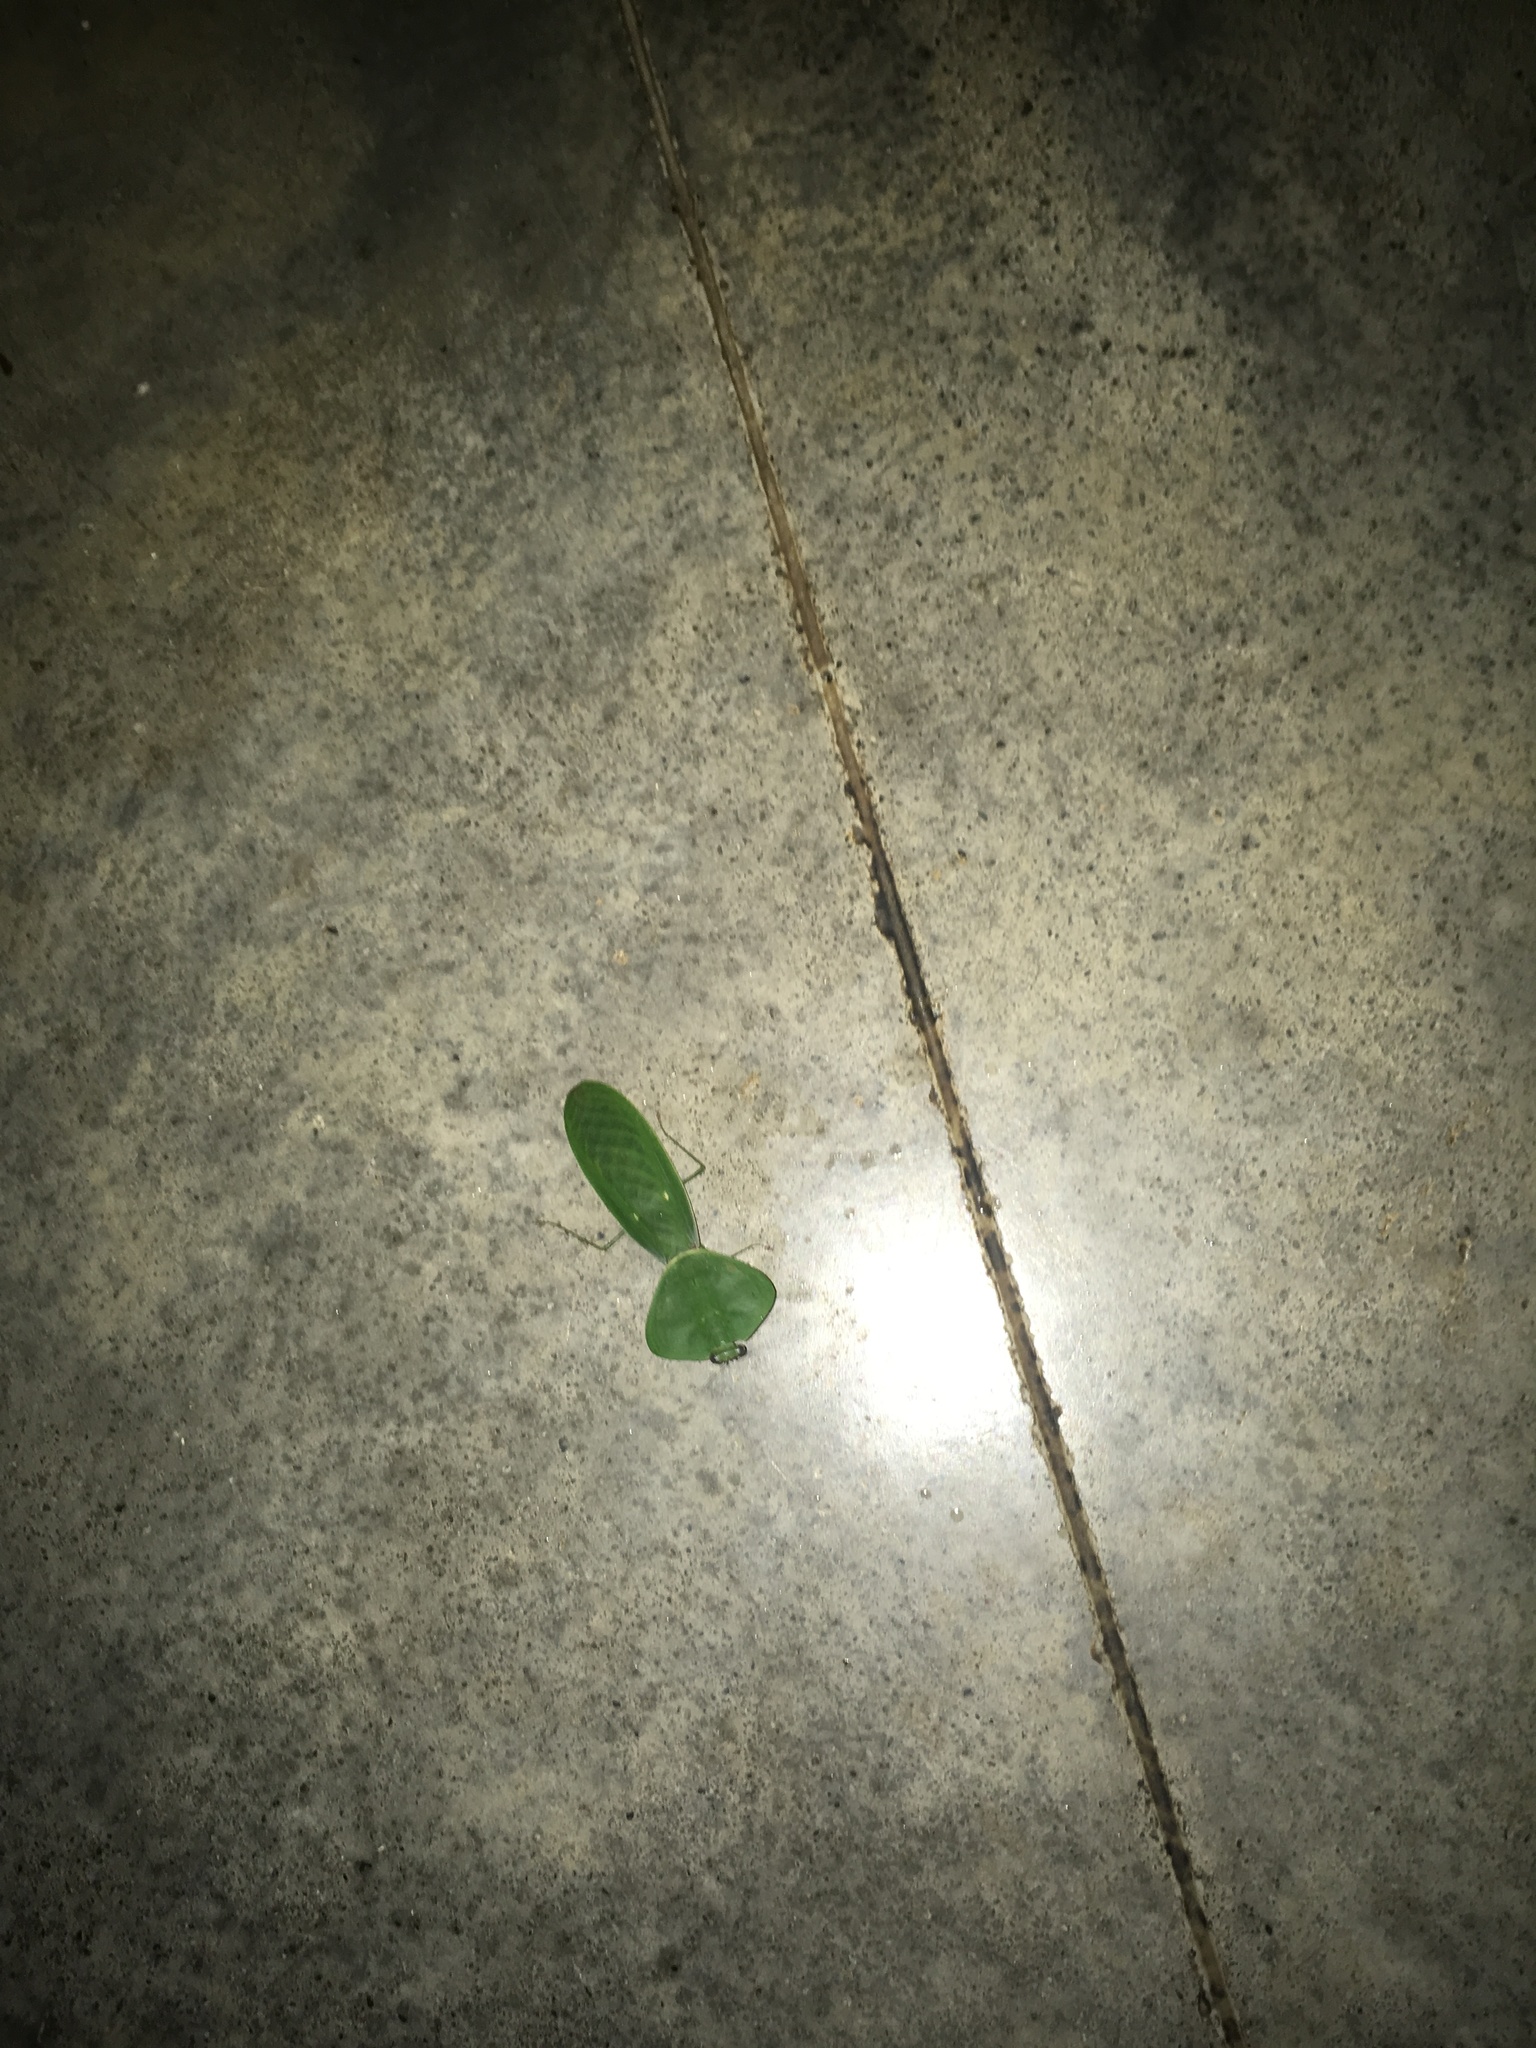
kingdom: Animalia
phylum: Arthropoda
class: Insecta
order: Mantodea
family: Mantidae
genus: Choeradodis
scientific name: Choeradodis rhombicollis
